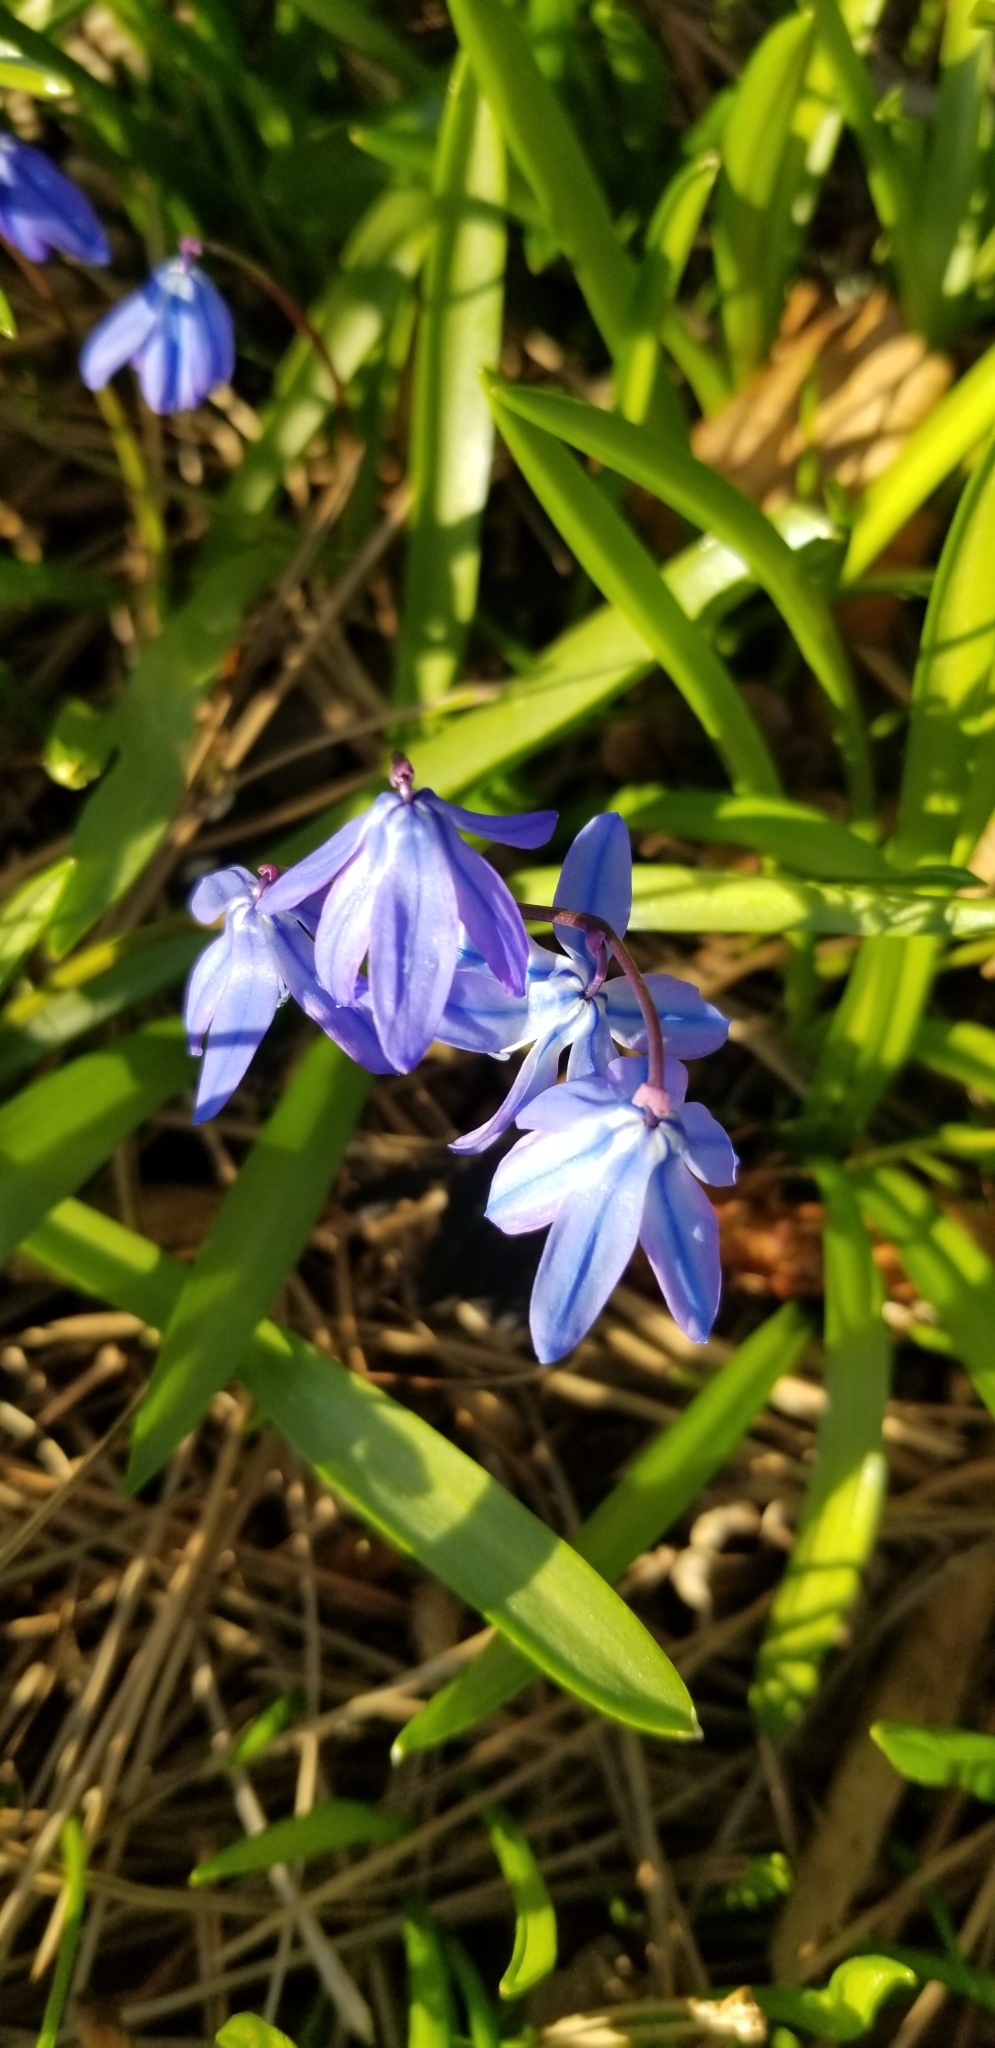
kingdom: Plantae
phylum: Tracheophyta
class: Liliopsida
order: Asparagales
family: Asparagaceae
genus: Scilla
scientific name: Scilla siberica
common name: Siberian squill
